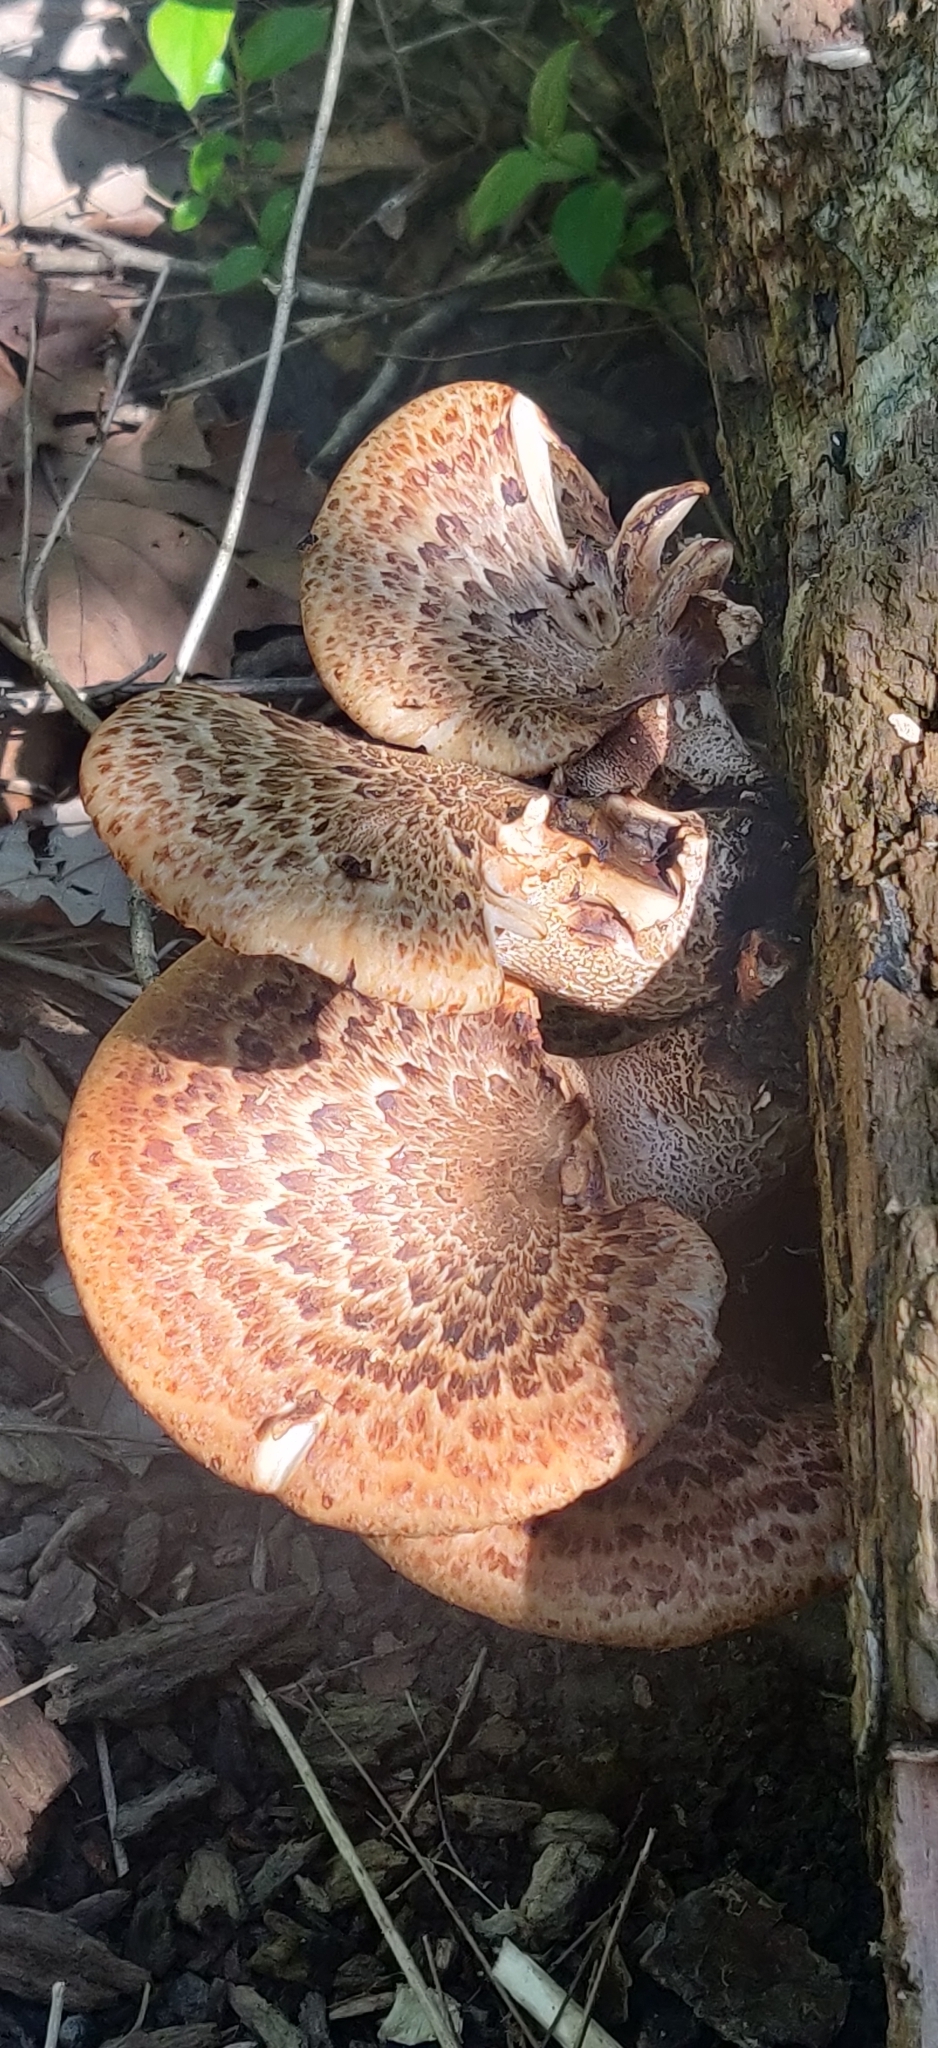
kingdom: Fungi
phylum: Basidiomycota
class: Agaricomycetes
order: Polyporales
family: Polyporaceae
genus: Cerioporus
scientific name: Cerioporus squamosus
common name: Dryad's saddle
